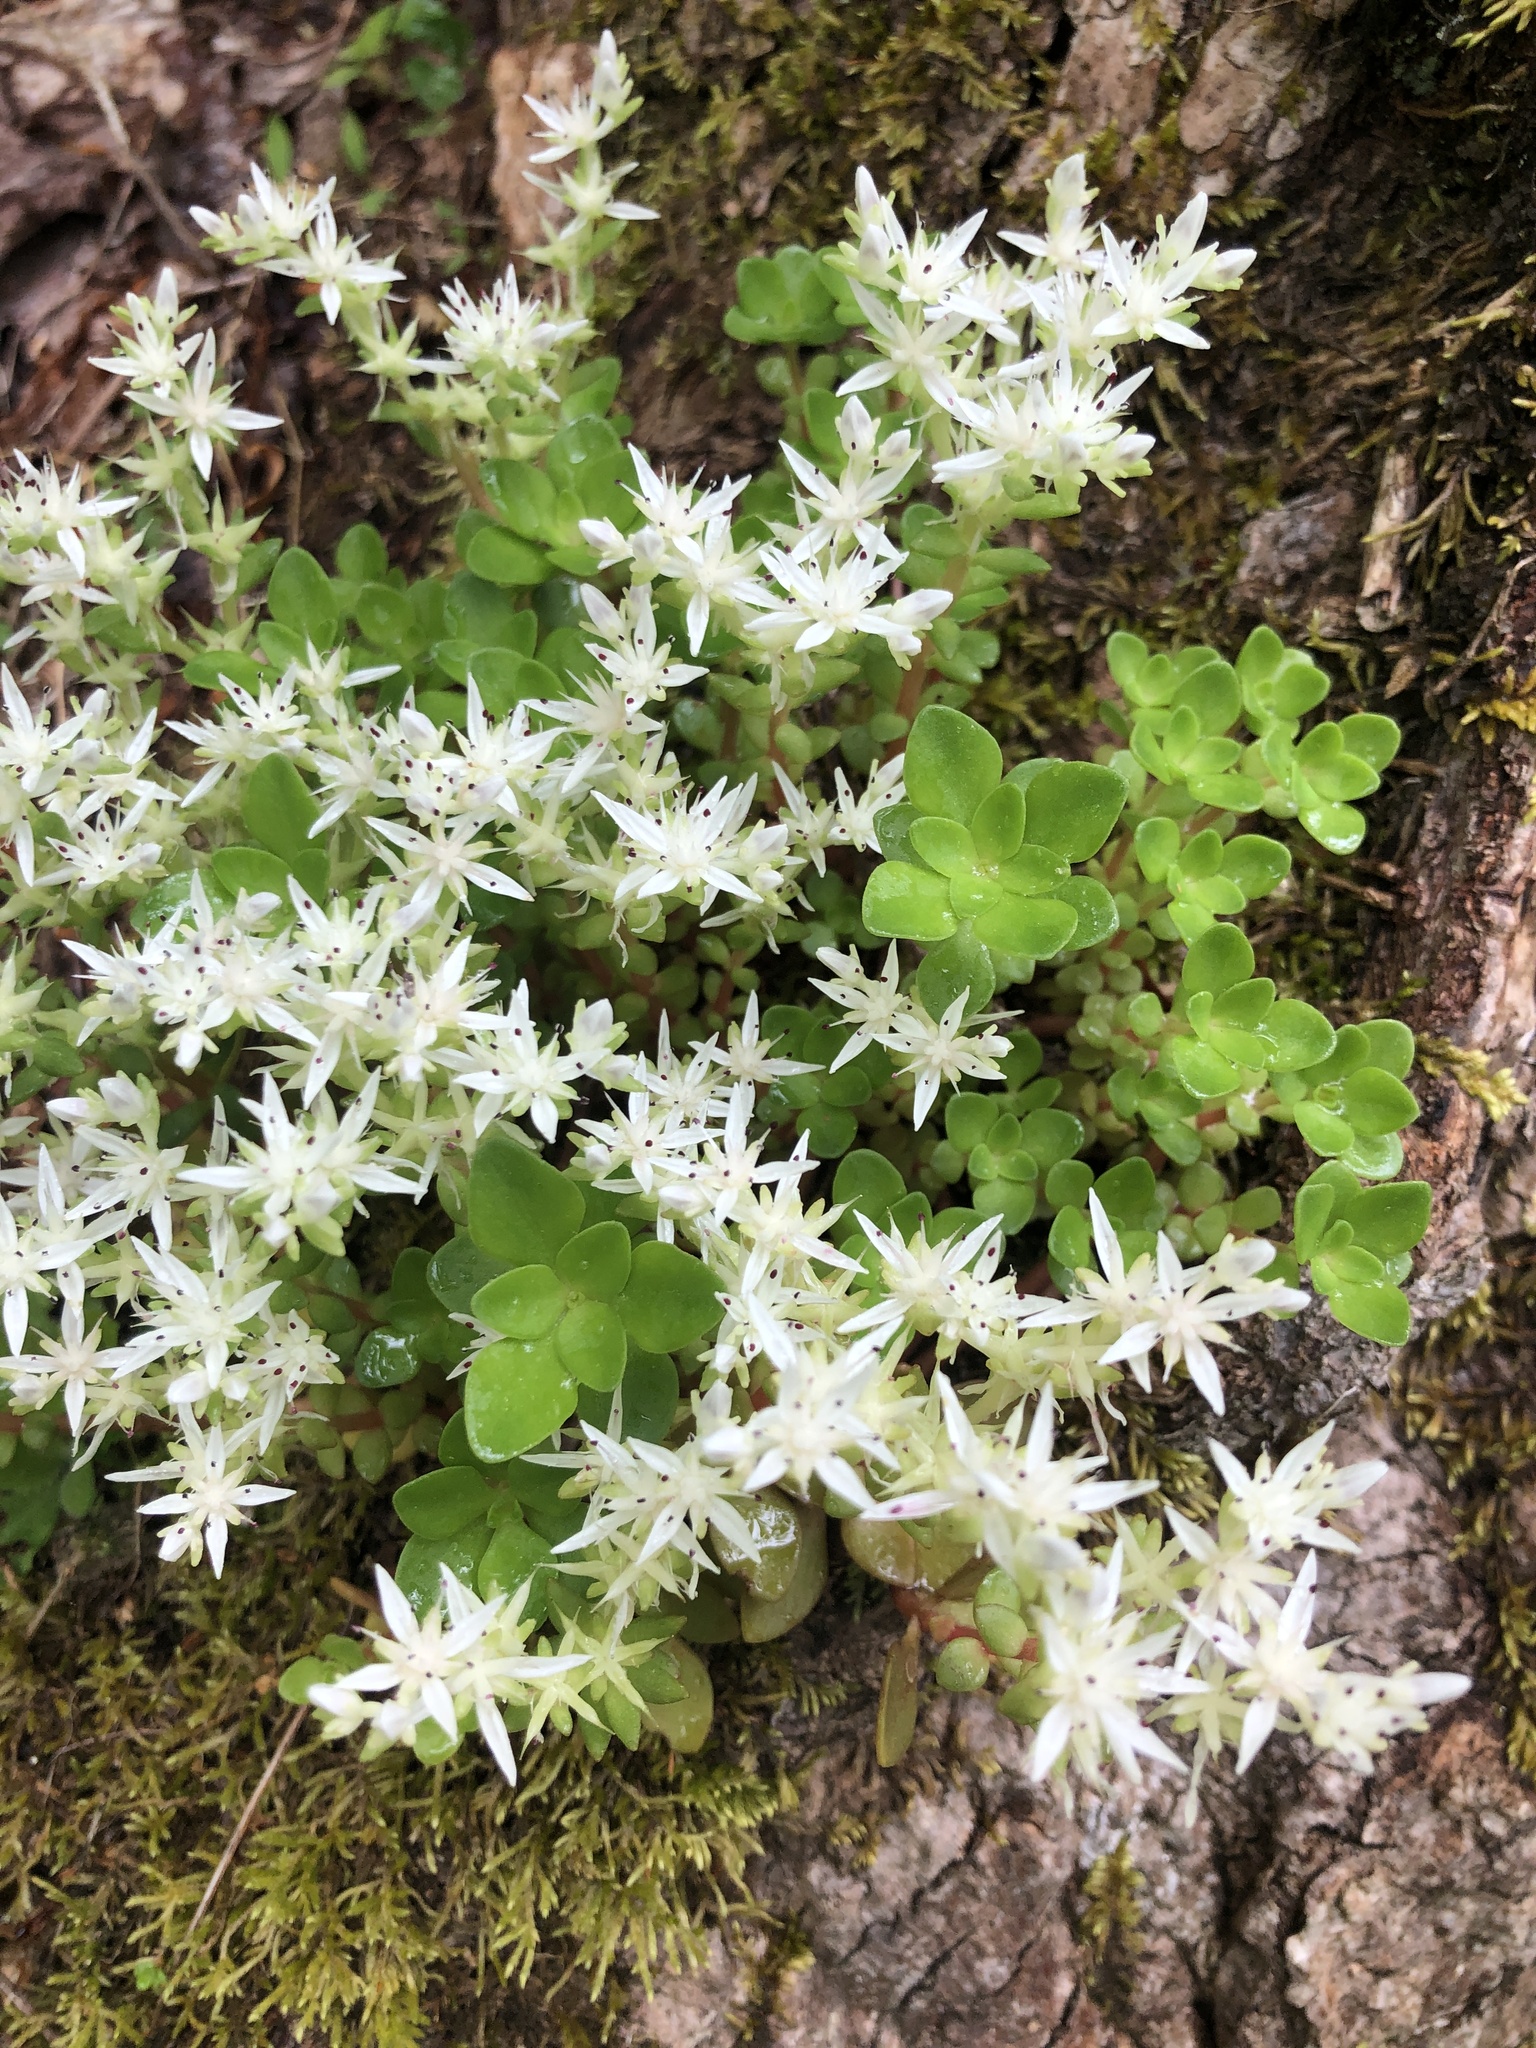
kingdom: Plantae
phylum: Tracheophyta
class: Magnoliopsida
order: Saxifragales
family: Crassulaceae
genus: Sedum
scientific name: Sedum ternatum
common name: Wild stonecrop
